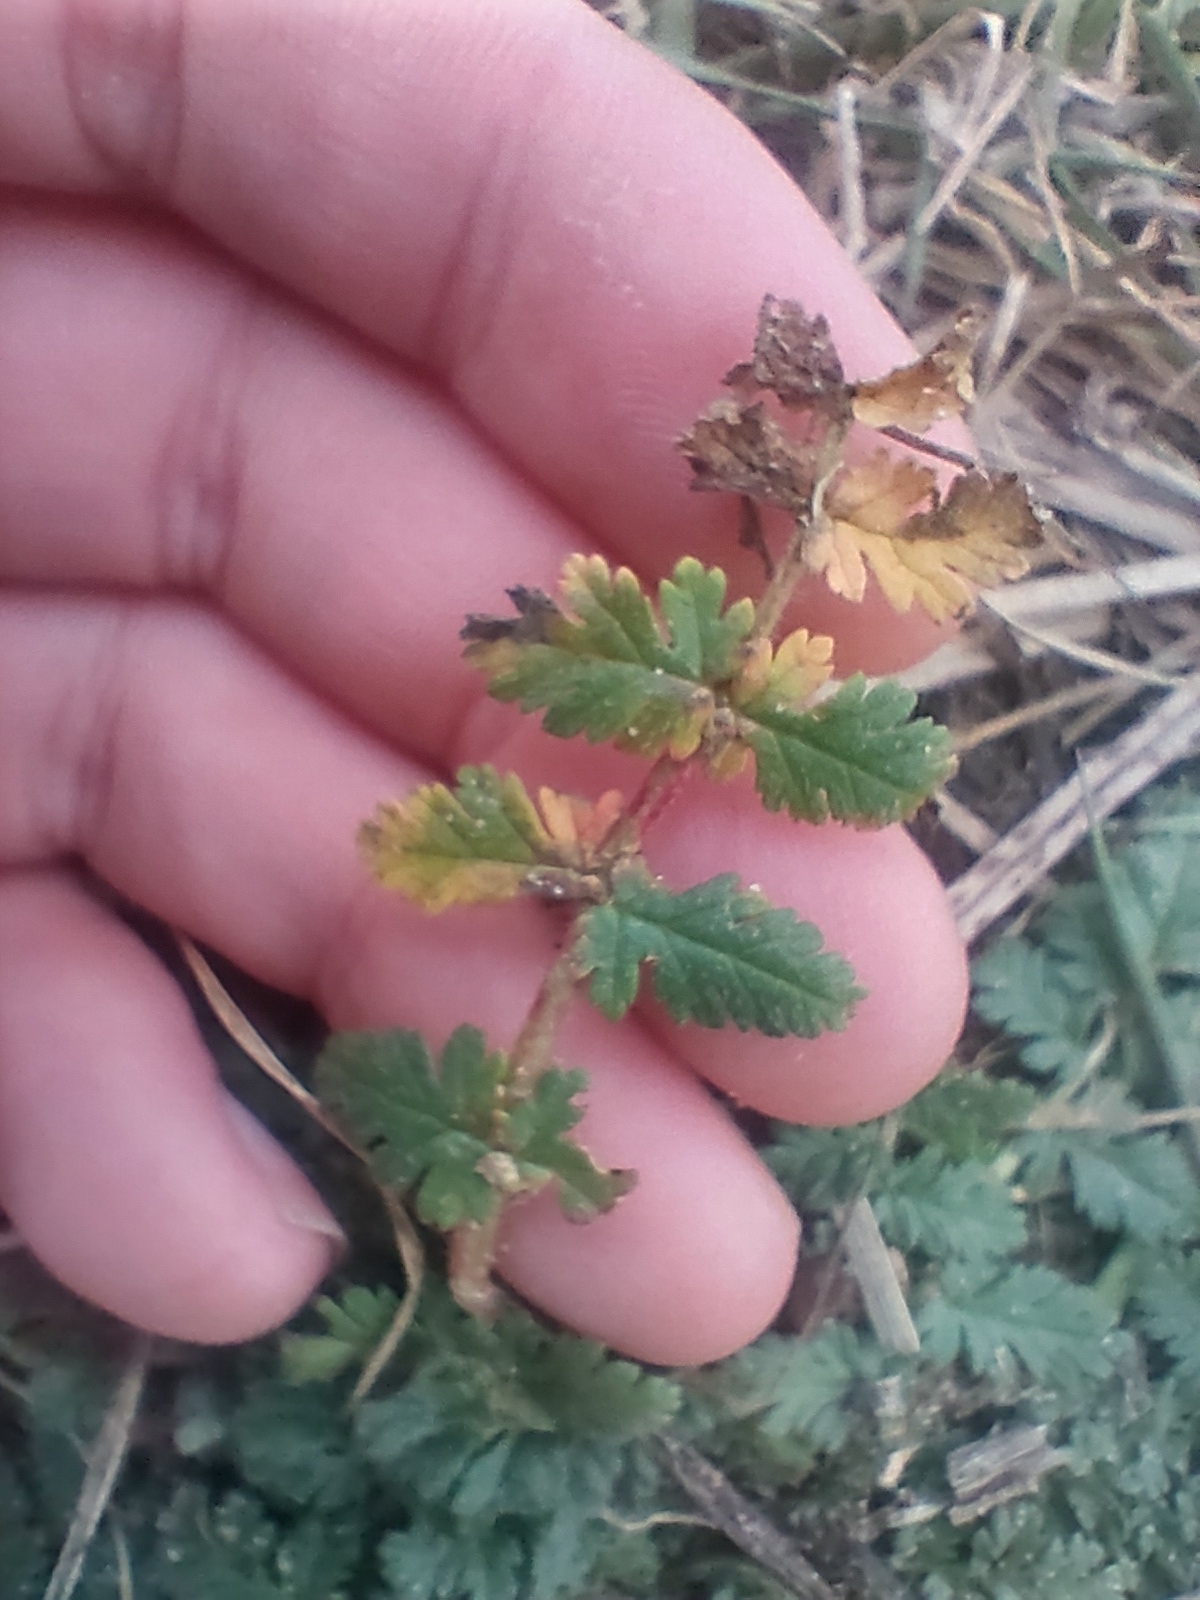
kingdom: Plantae
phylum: Tracheophyta
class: Magnoliopsida
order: Geraniales
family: Geraniaceae
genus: Erodium
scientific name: Erodium cicutarium
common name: Common stork's-bill
